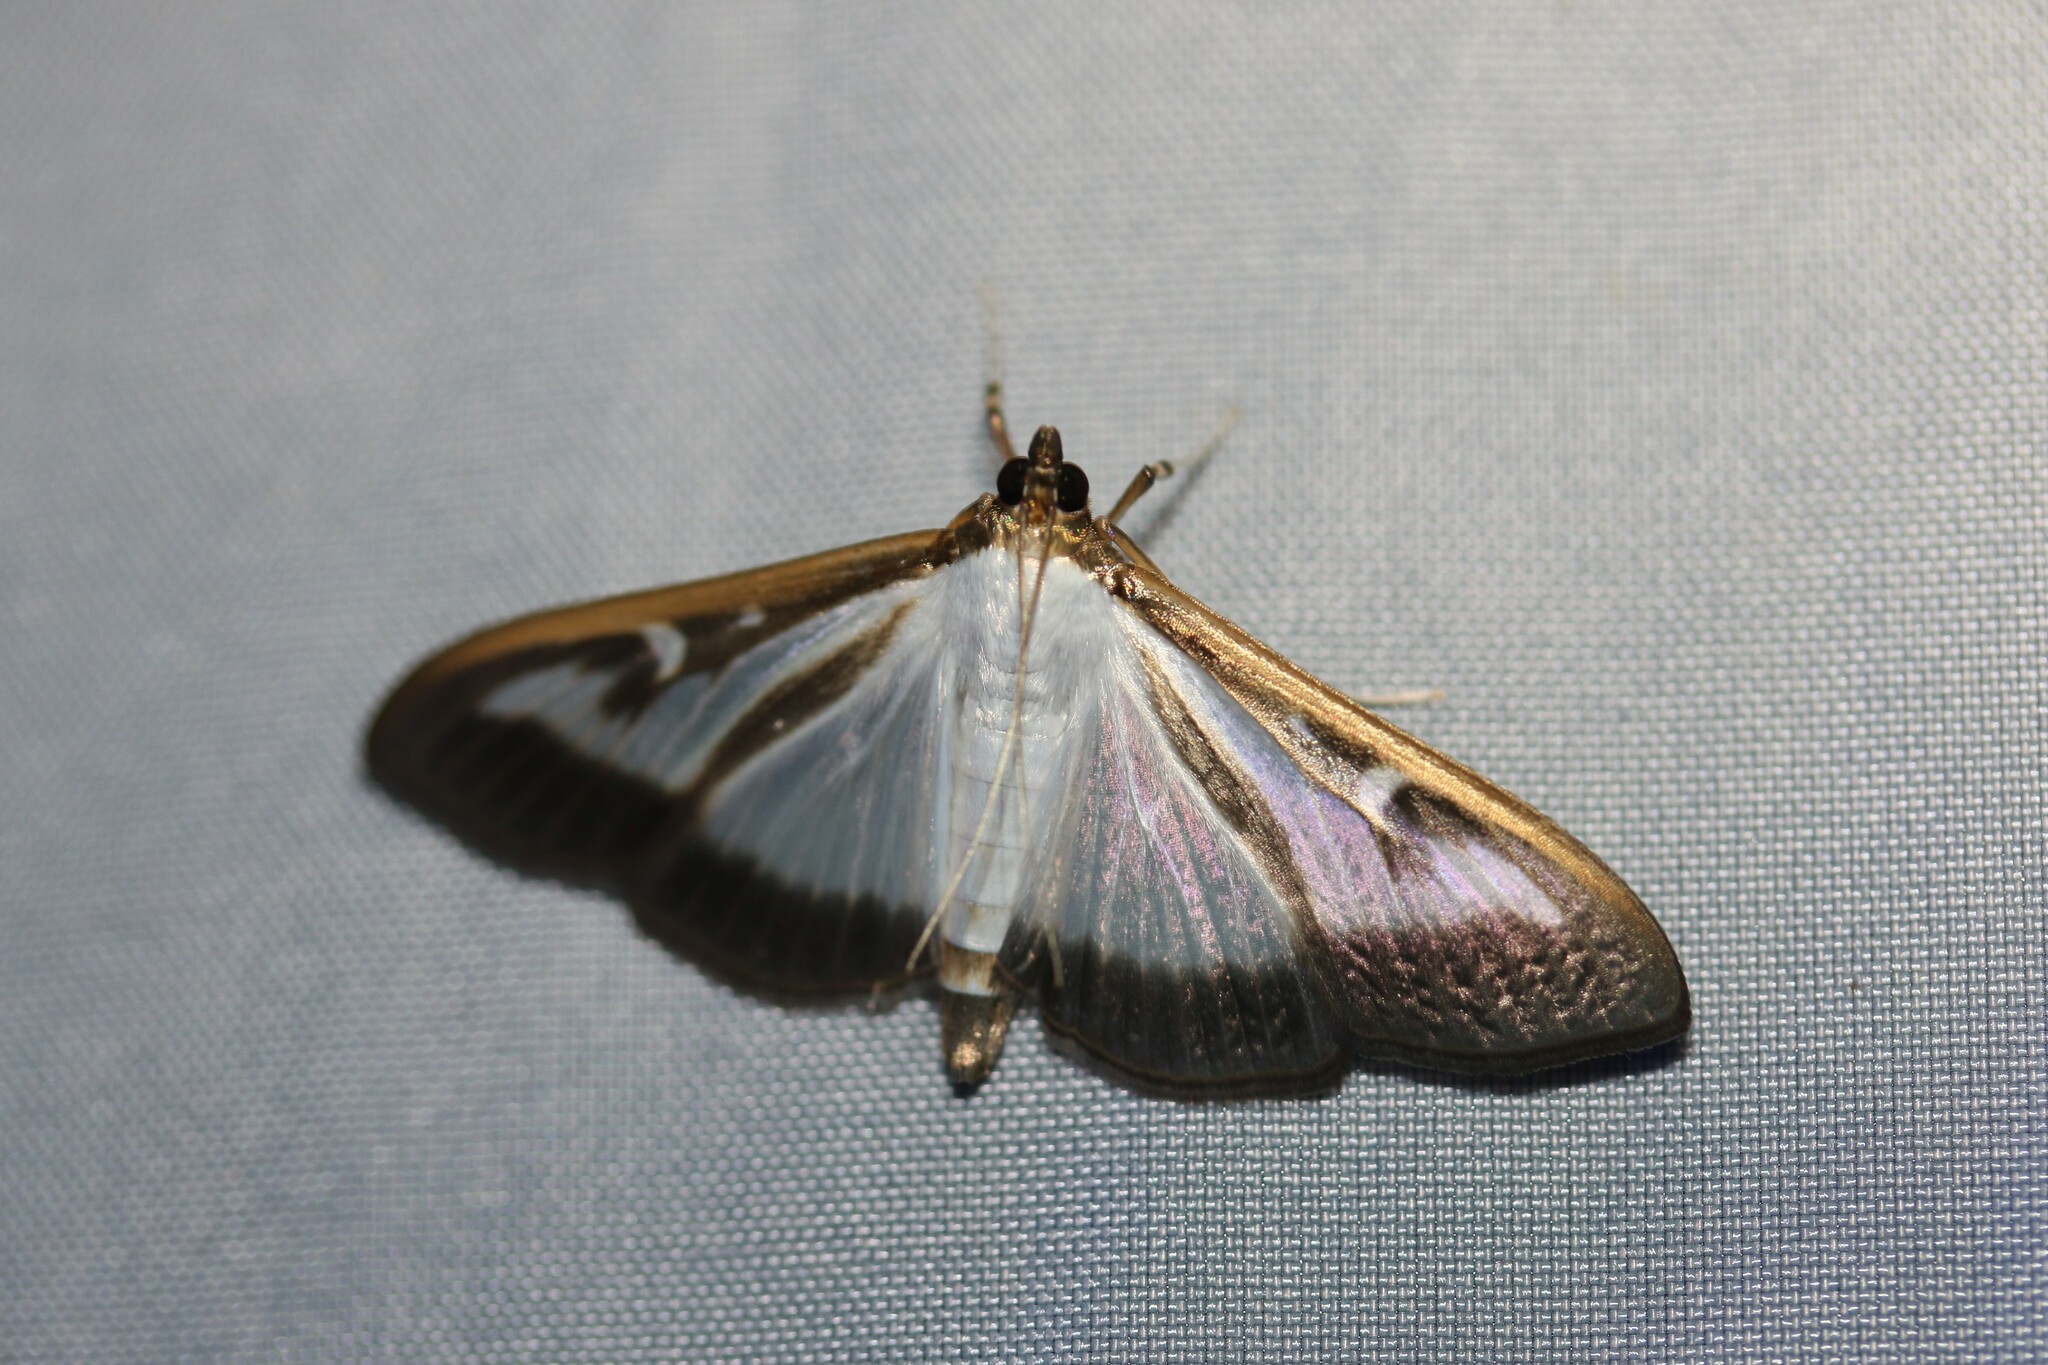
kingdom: Animalia
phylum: Arthropoda
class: Insecta
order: Lepidoptera
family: Crambidae
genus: Cydalima
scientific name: Cydalima perspectalis
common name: Box tree moth
